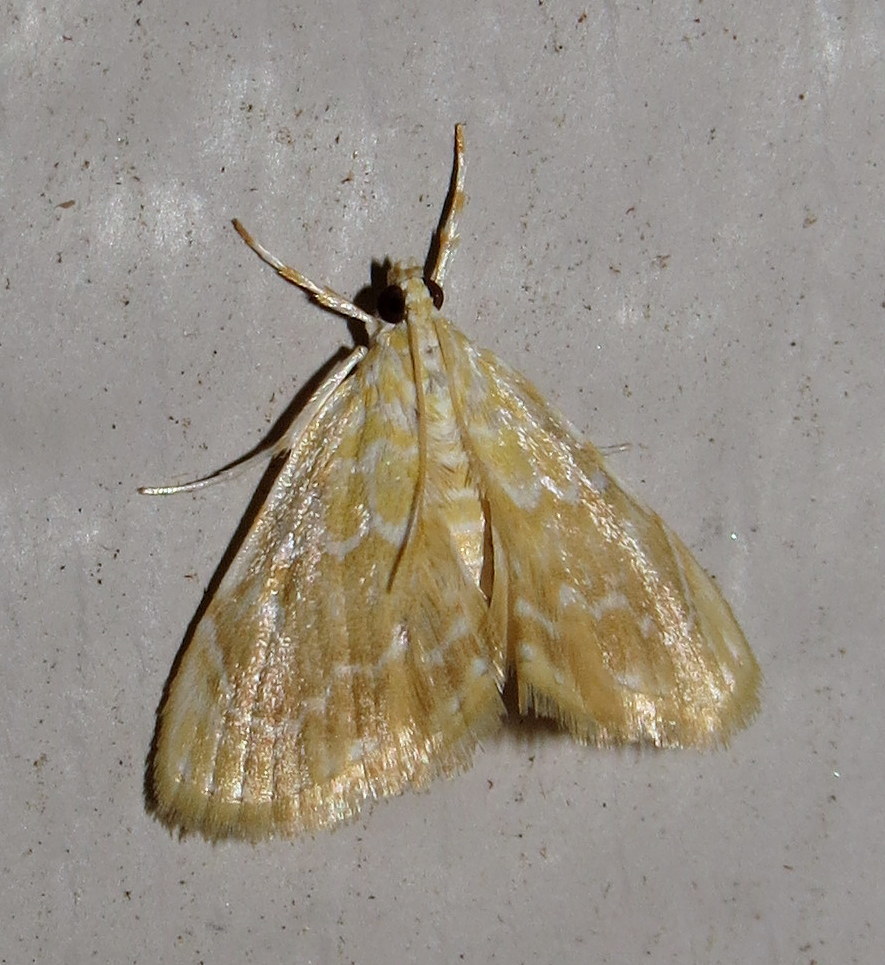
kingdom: Animalia
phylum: Arthropoda
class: Insecta
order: Lepidoptera
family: Crambidae
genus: Glaphyria
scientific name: Glaphyria glaphyralis
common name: Common glaphyria moth
